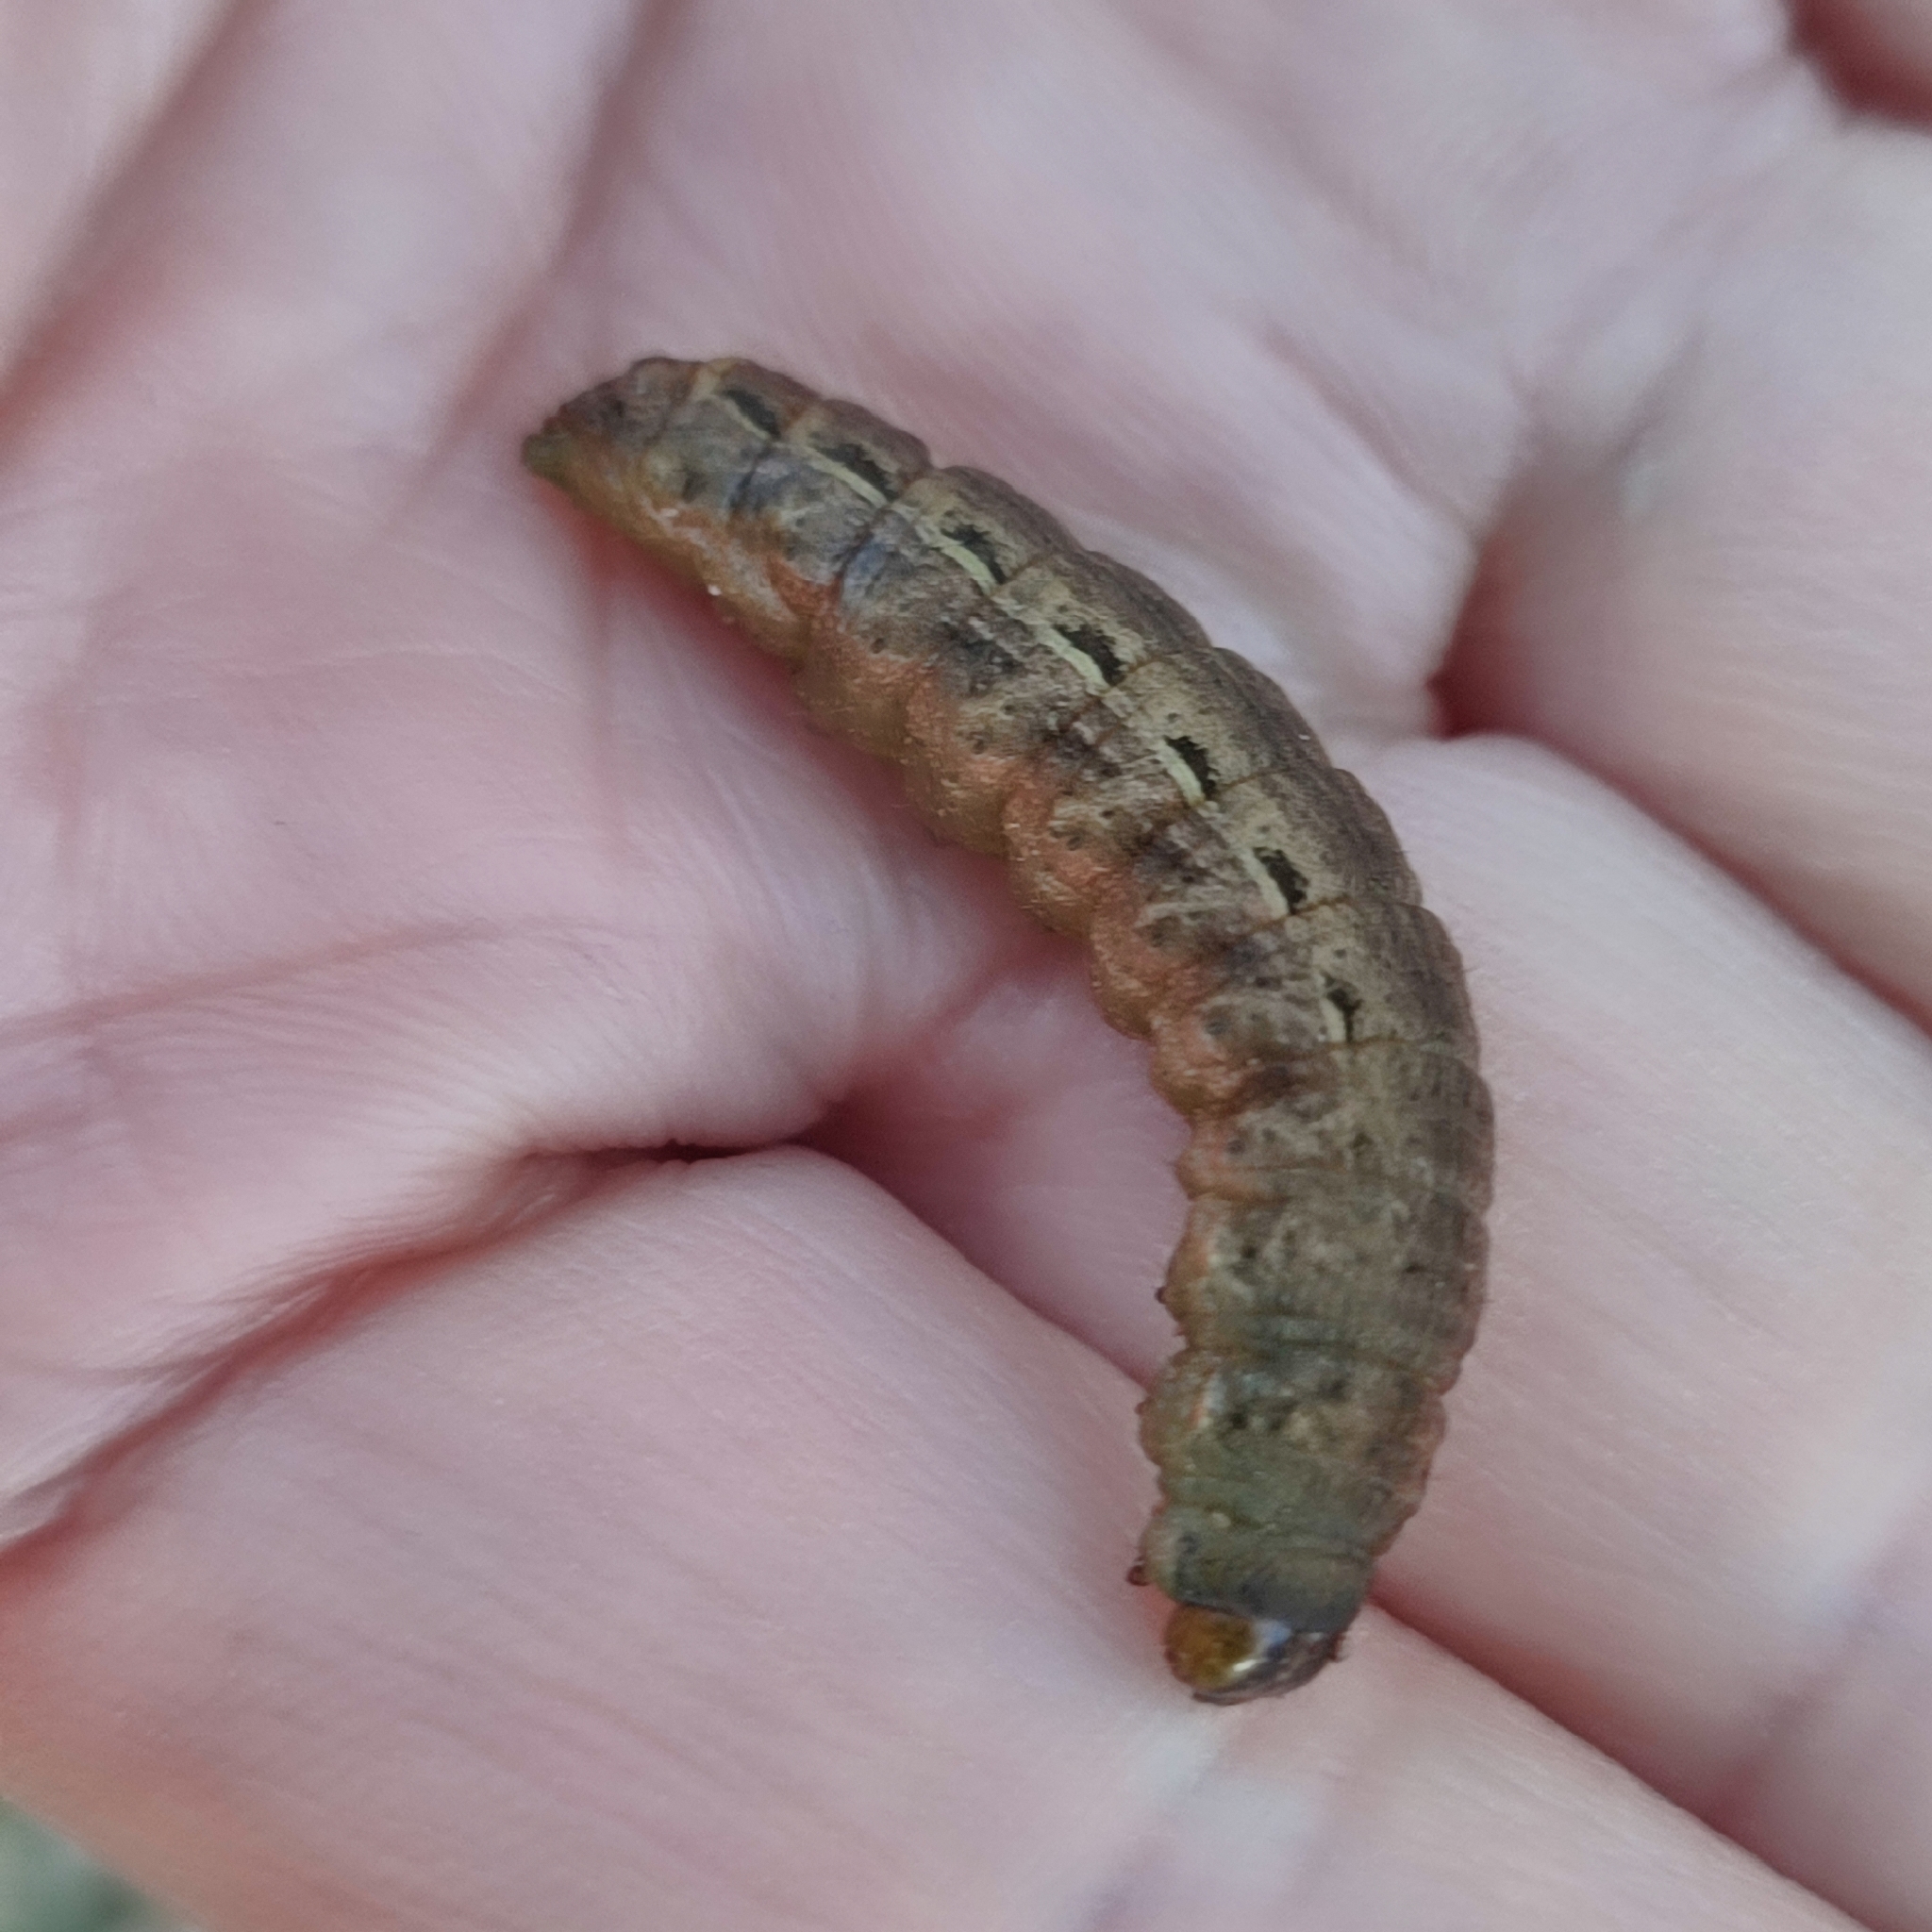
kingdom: Animalia
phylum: Arthropoda
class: Insecta
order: Lepidoptera
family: Noctuidae
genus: Noctua
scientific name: Noctua pronuba
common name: Large yellow underwing
